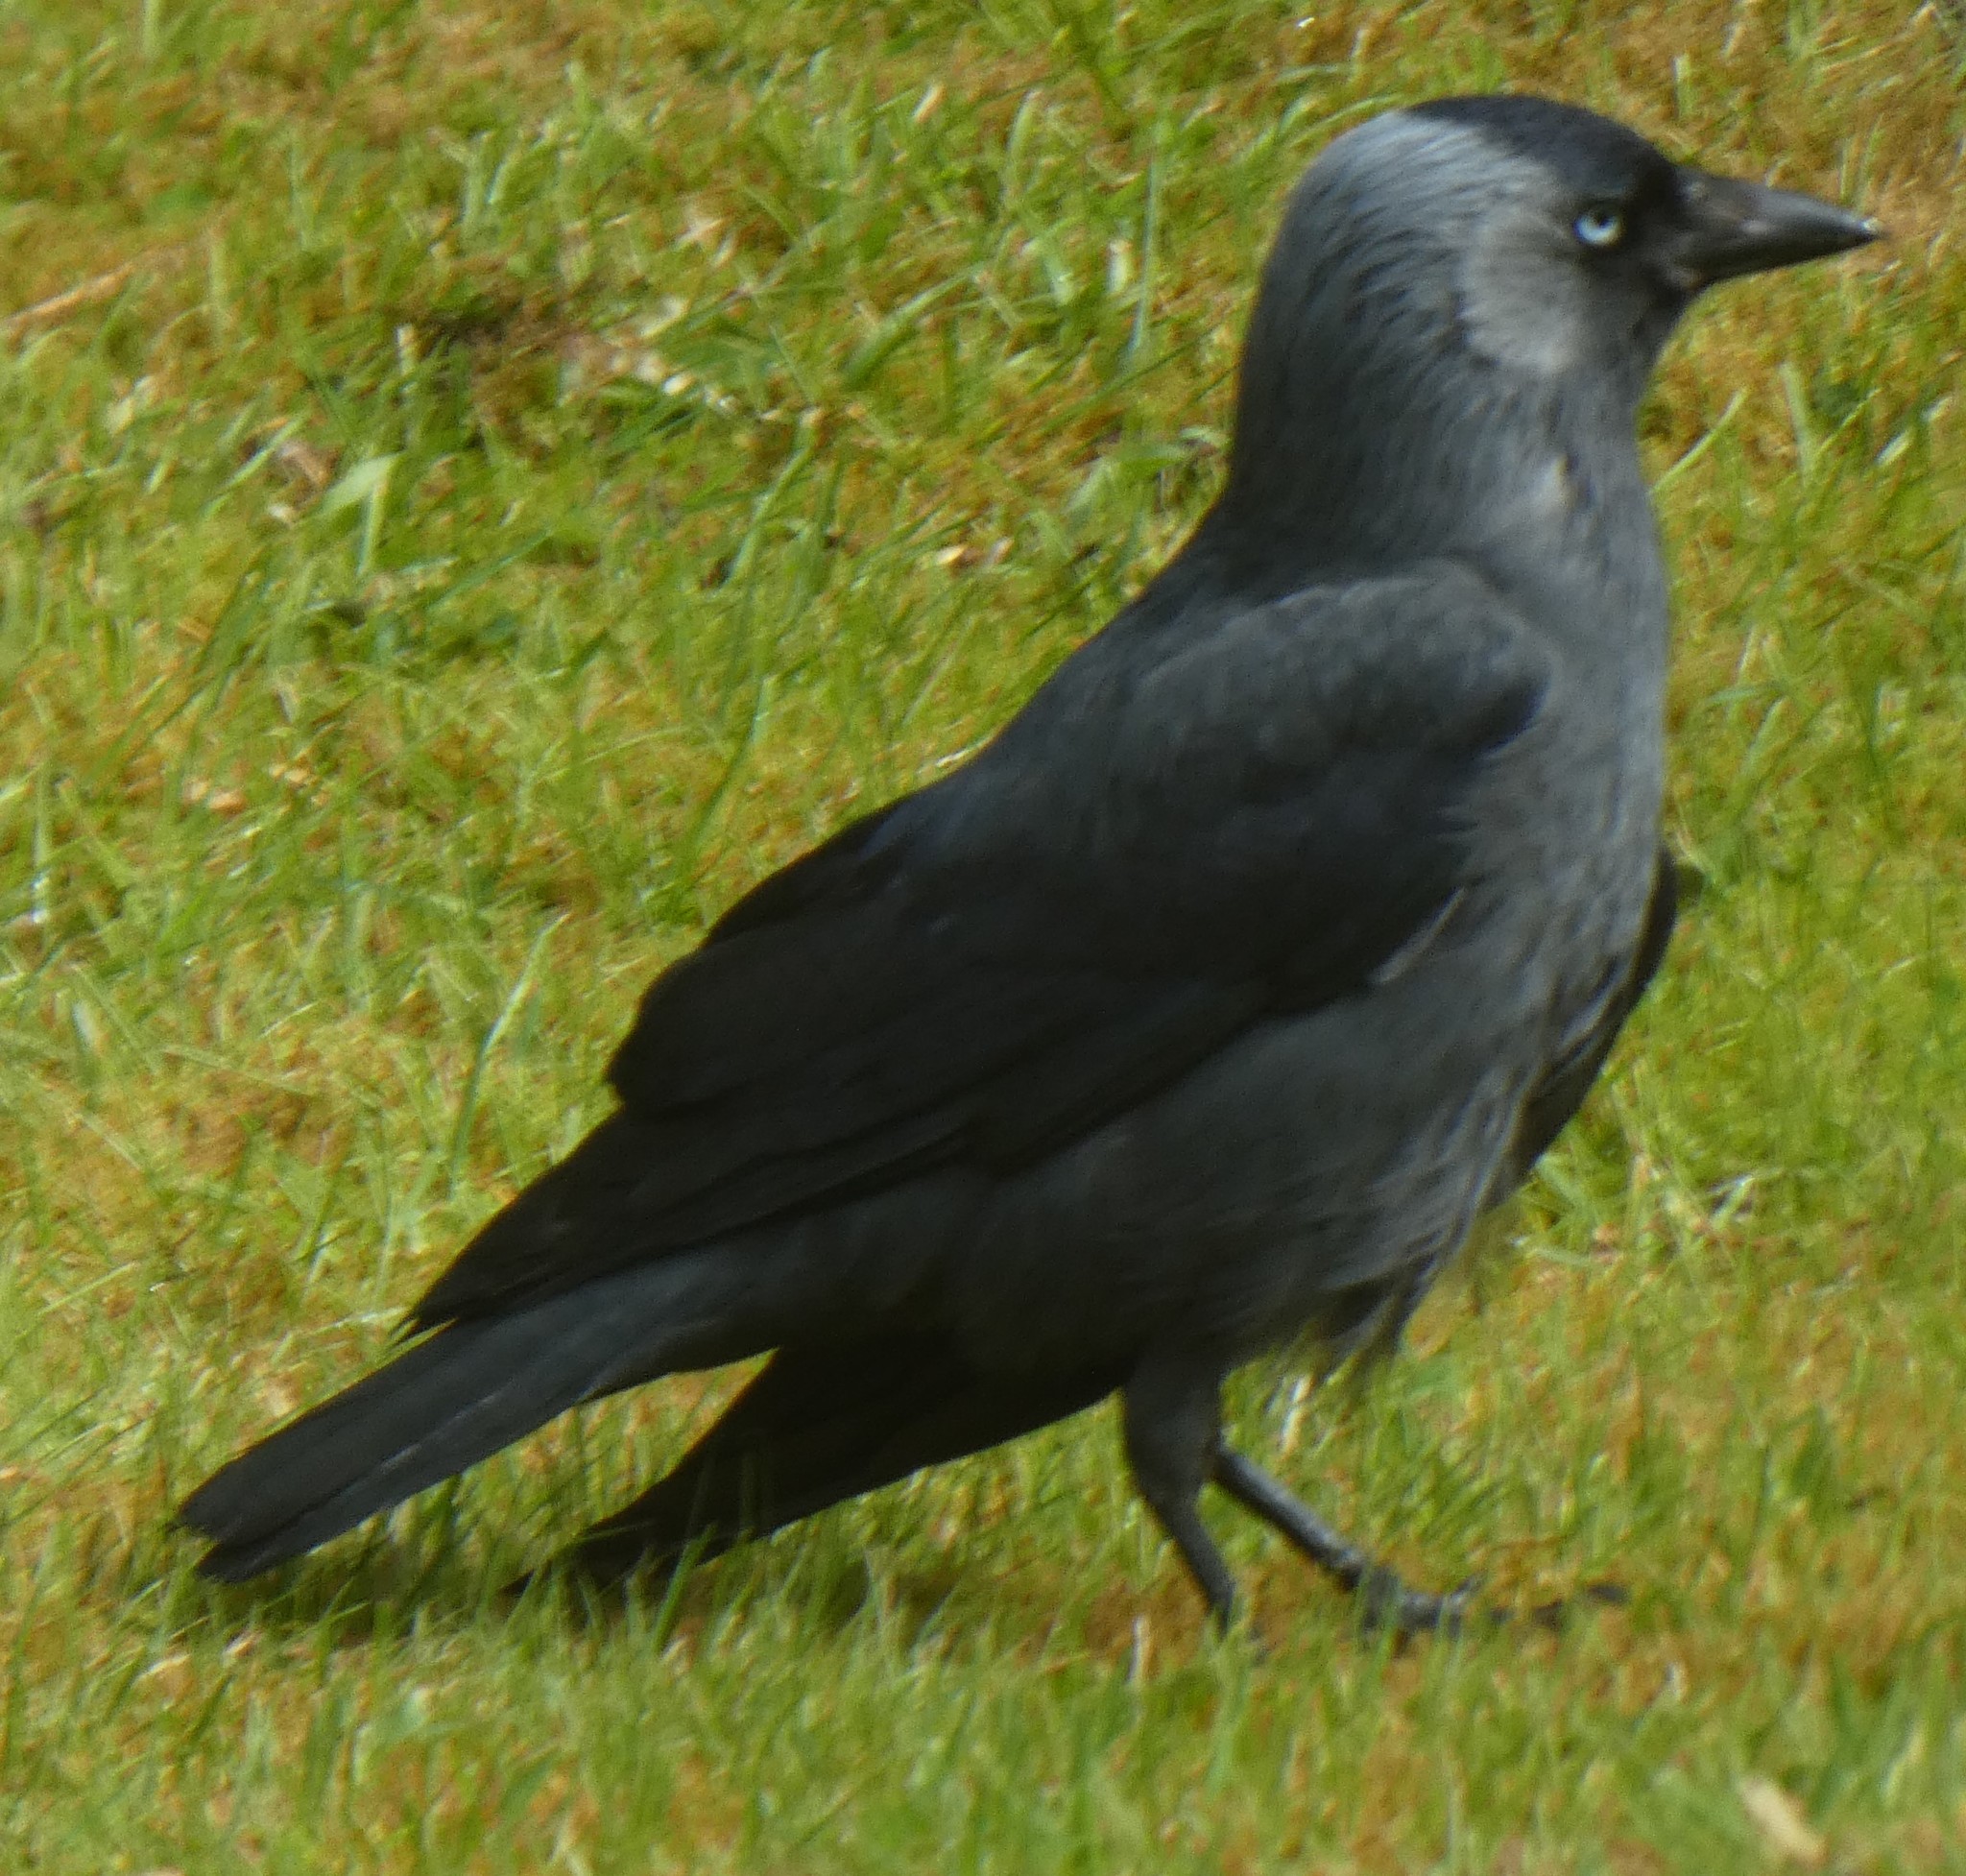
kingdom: Animalia
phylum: Chordata
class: Aves
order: Passeriformes
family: Corvidae
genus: Coloeus
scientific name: Coloeus monedula
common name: Western jackdaw
